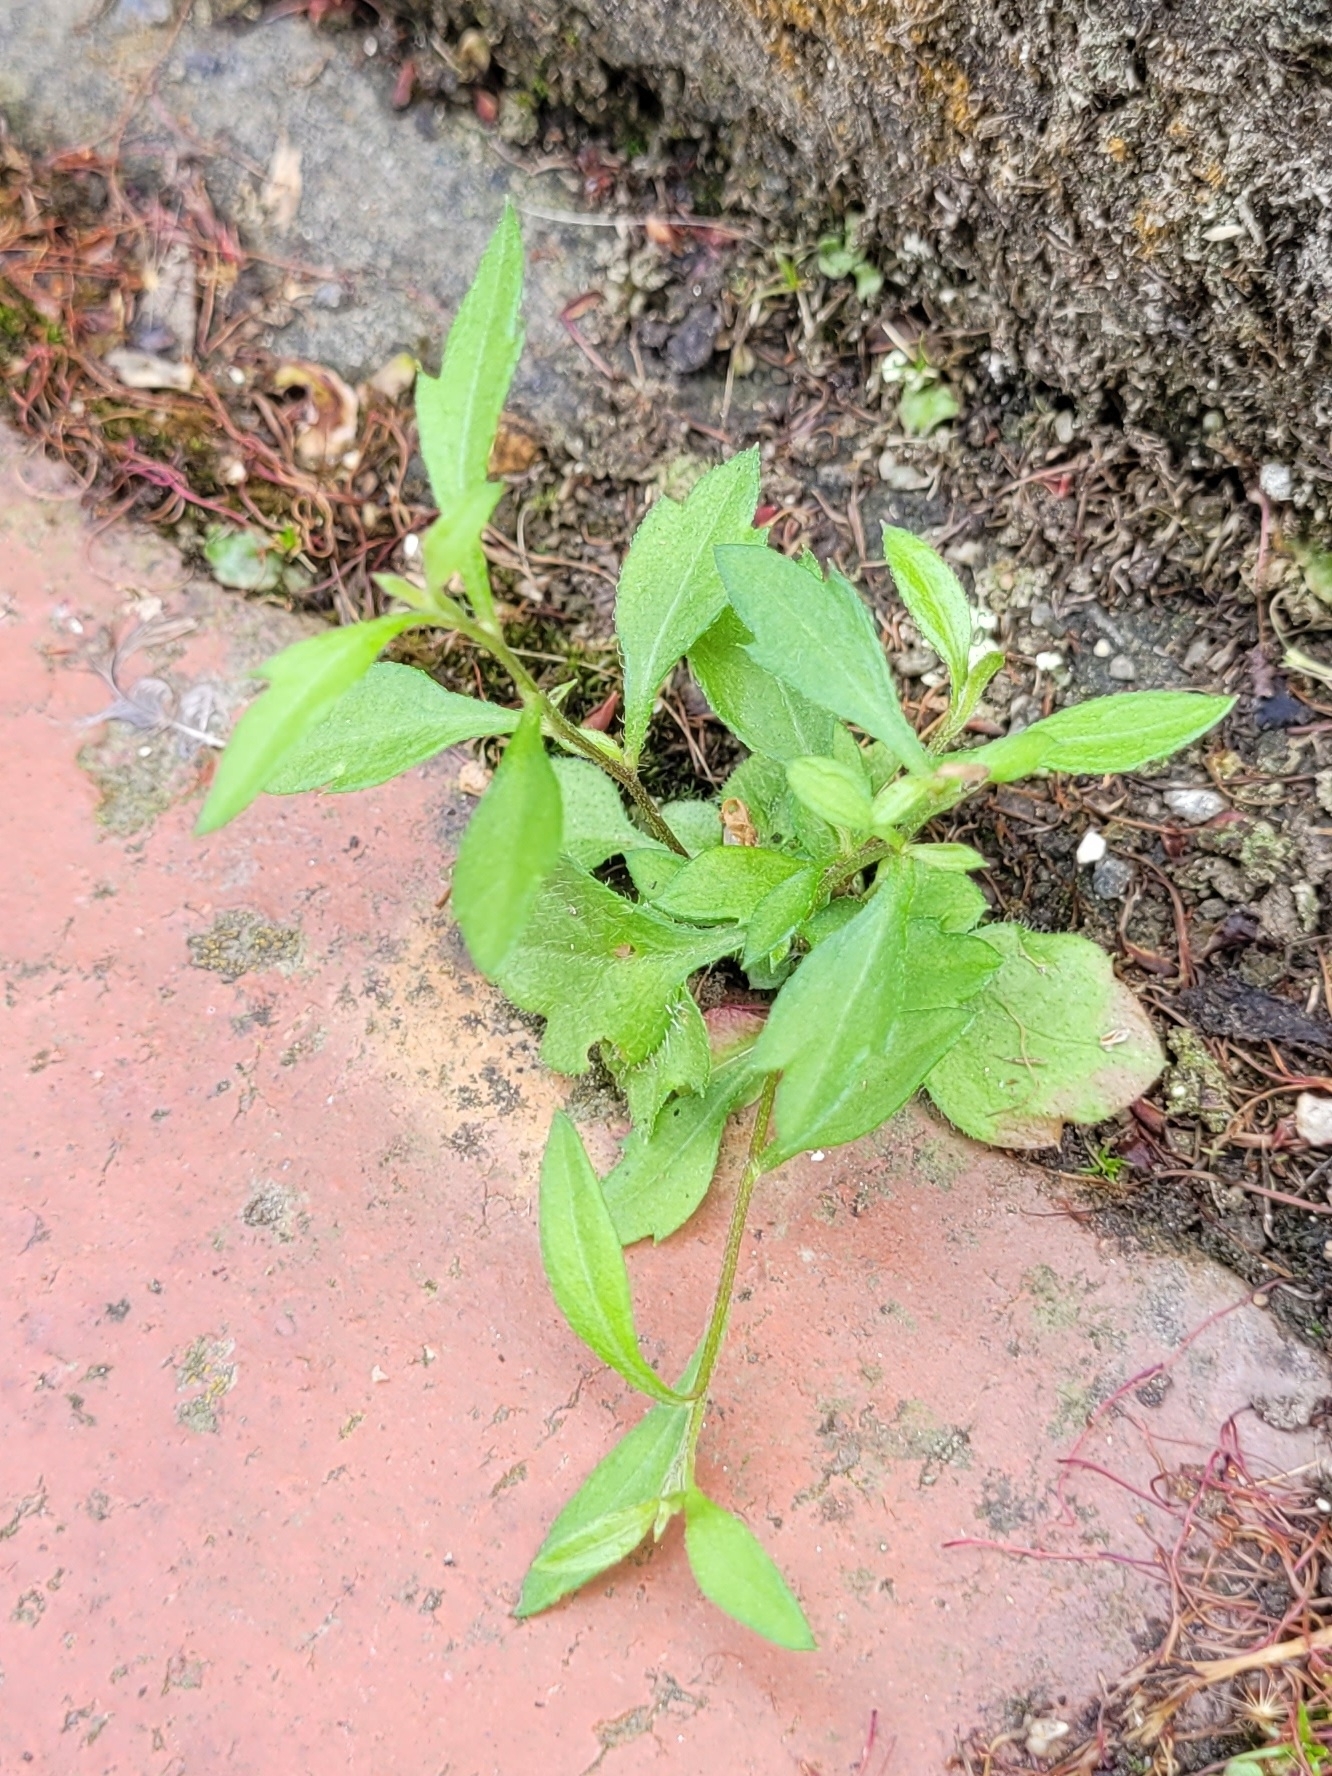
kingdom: Plantae
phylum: Tracheophyta
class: Magnoliopsida
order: Asterales
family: Asteraceae
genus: Erigeron
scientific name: Erigeron karvinskianus
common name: Mexican fleabane
